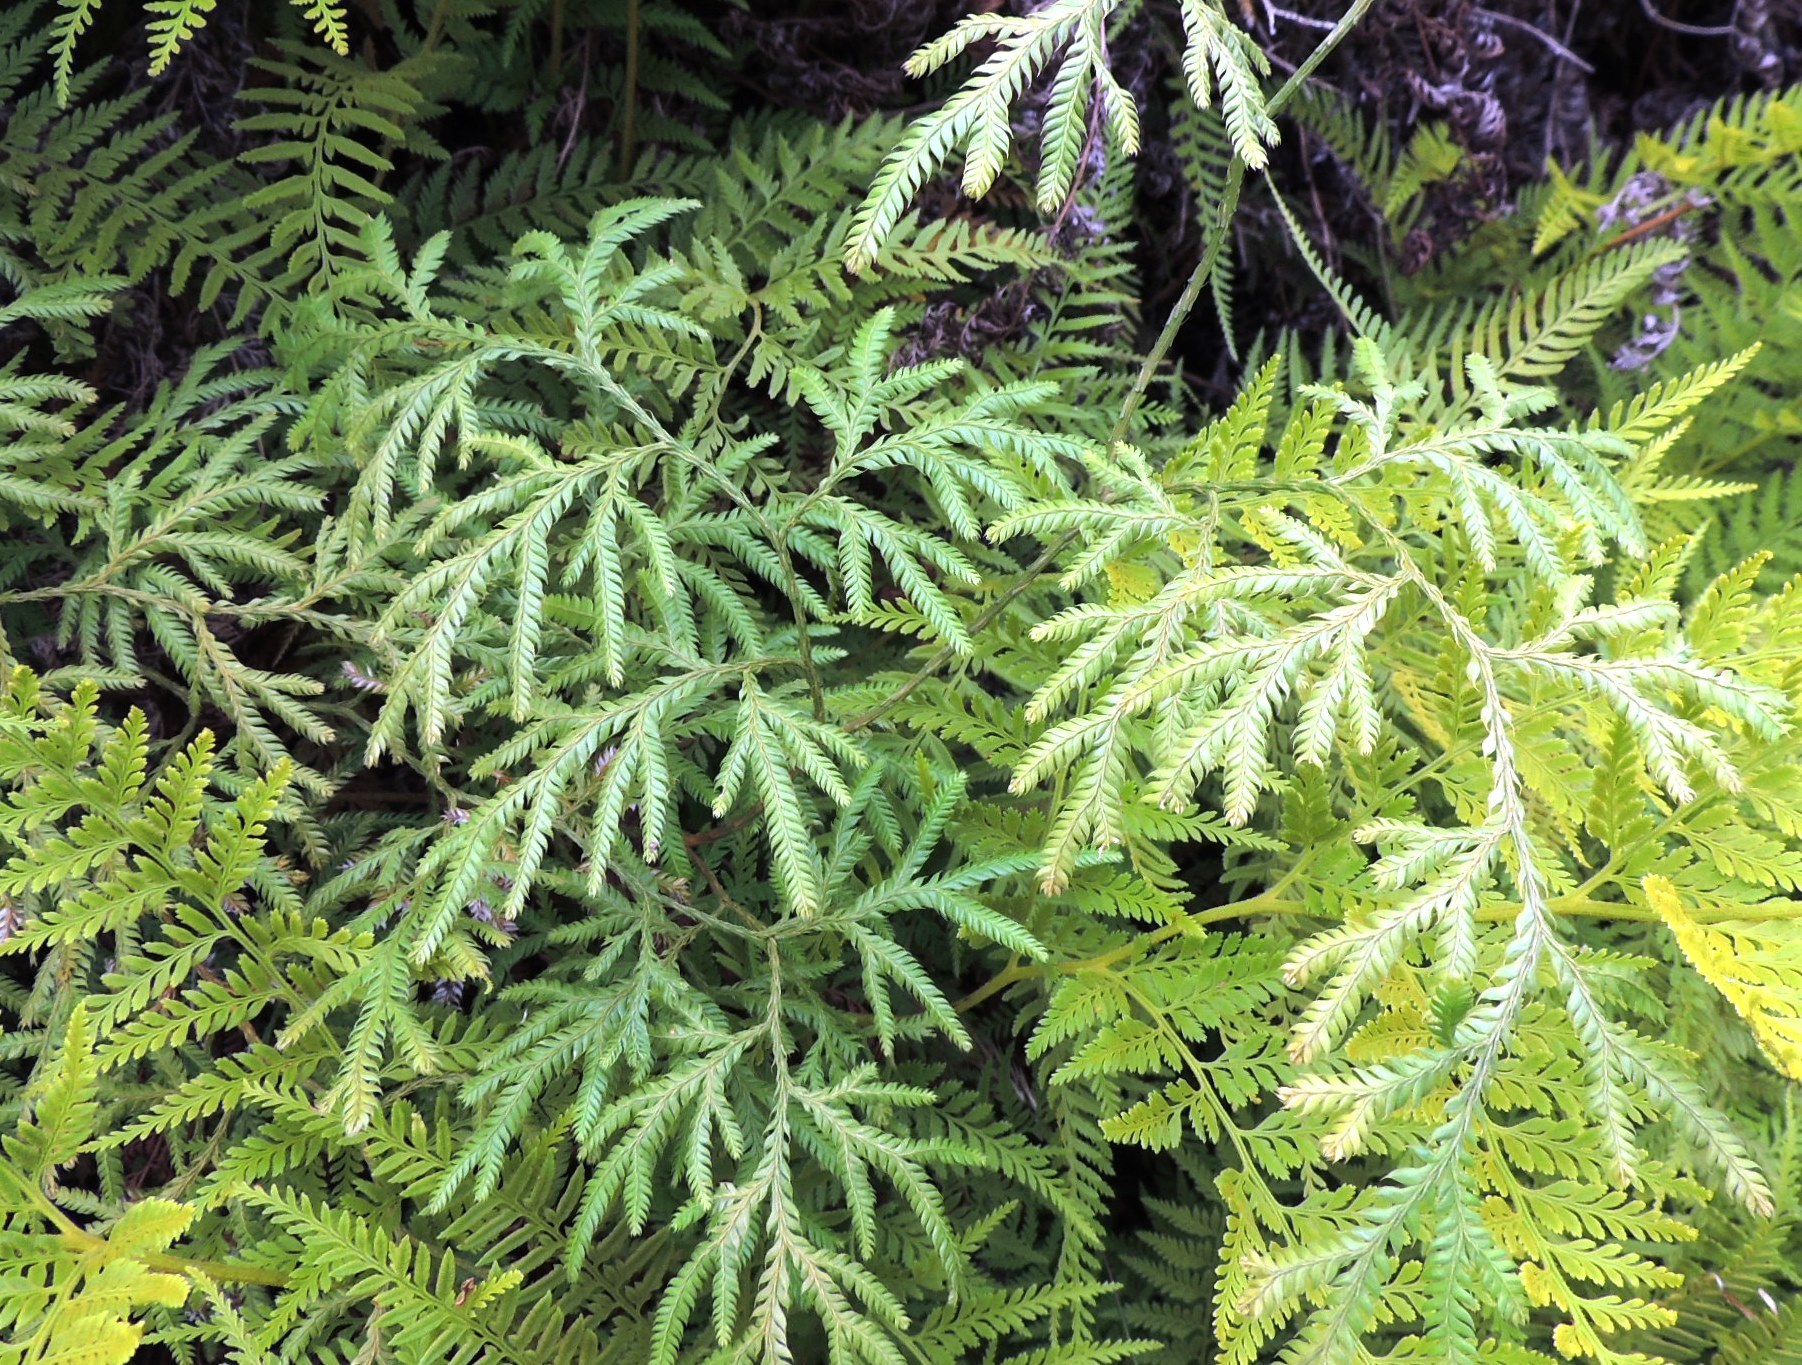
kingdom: Plantae
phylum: Tracheophyta
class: Lycopodiopsida
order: Lycopodiales
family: Lycopodiaceae
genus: Lycopodium
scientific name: Lycopodium volubile
